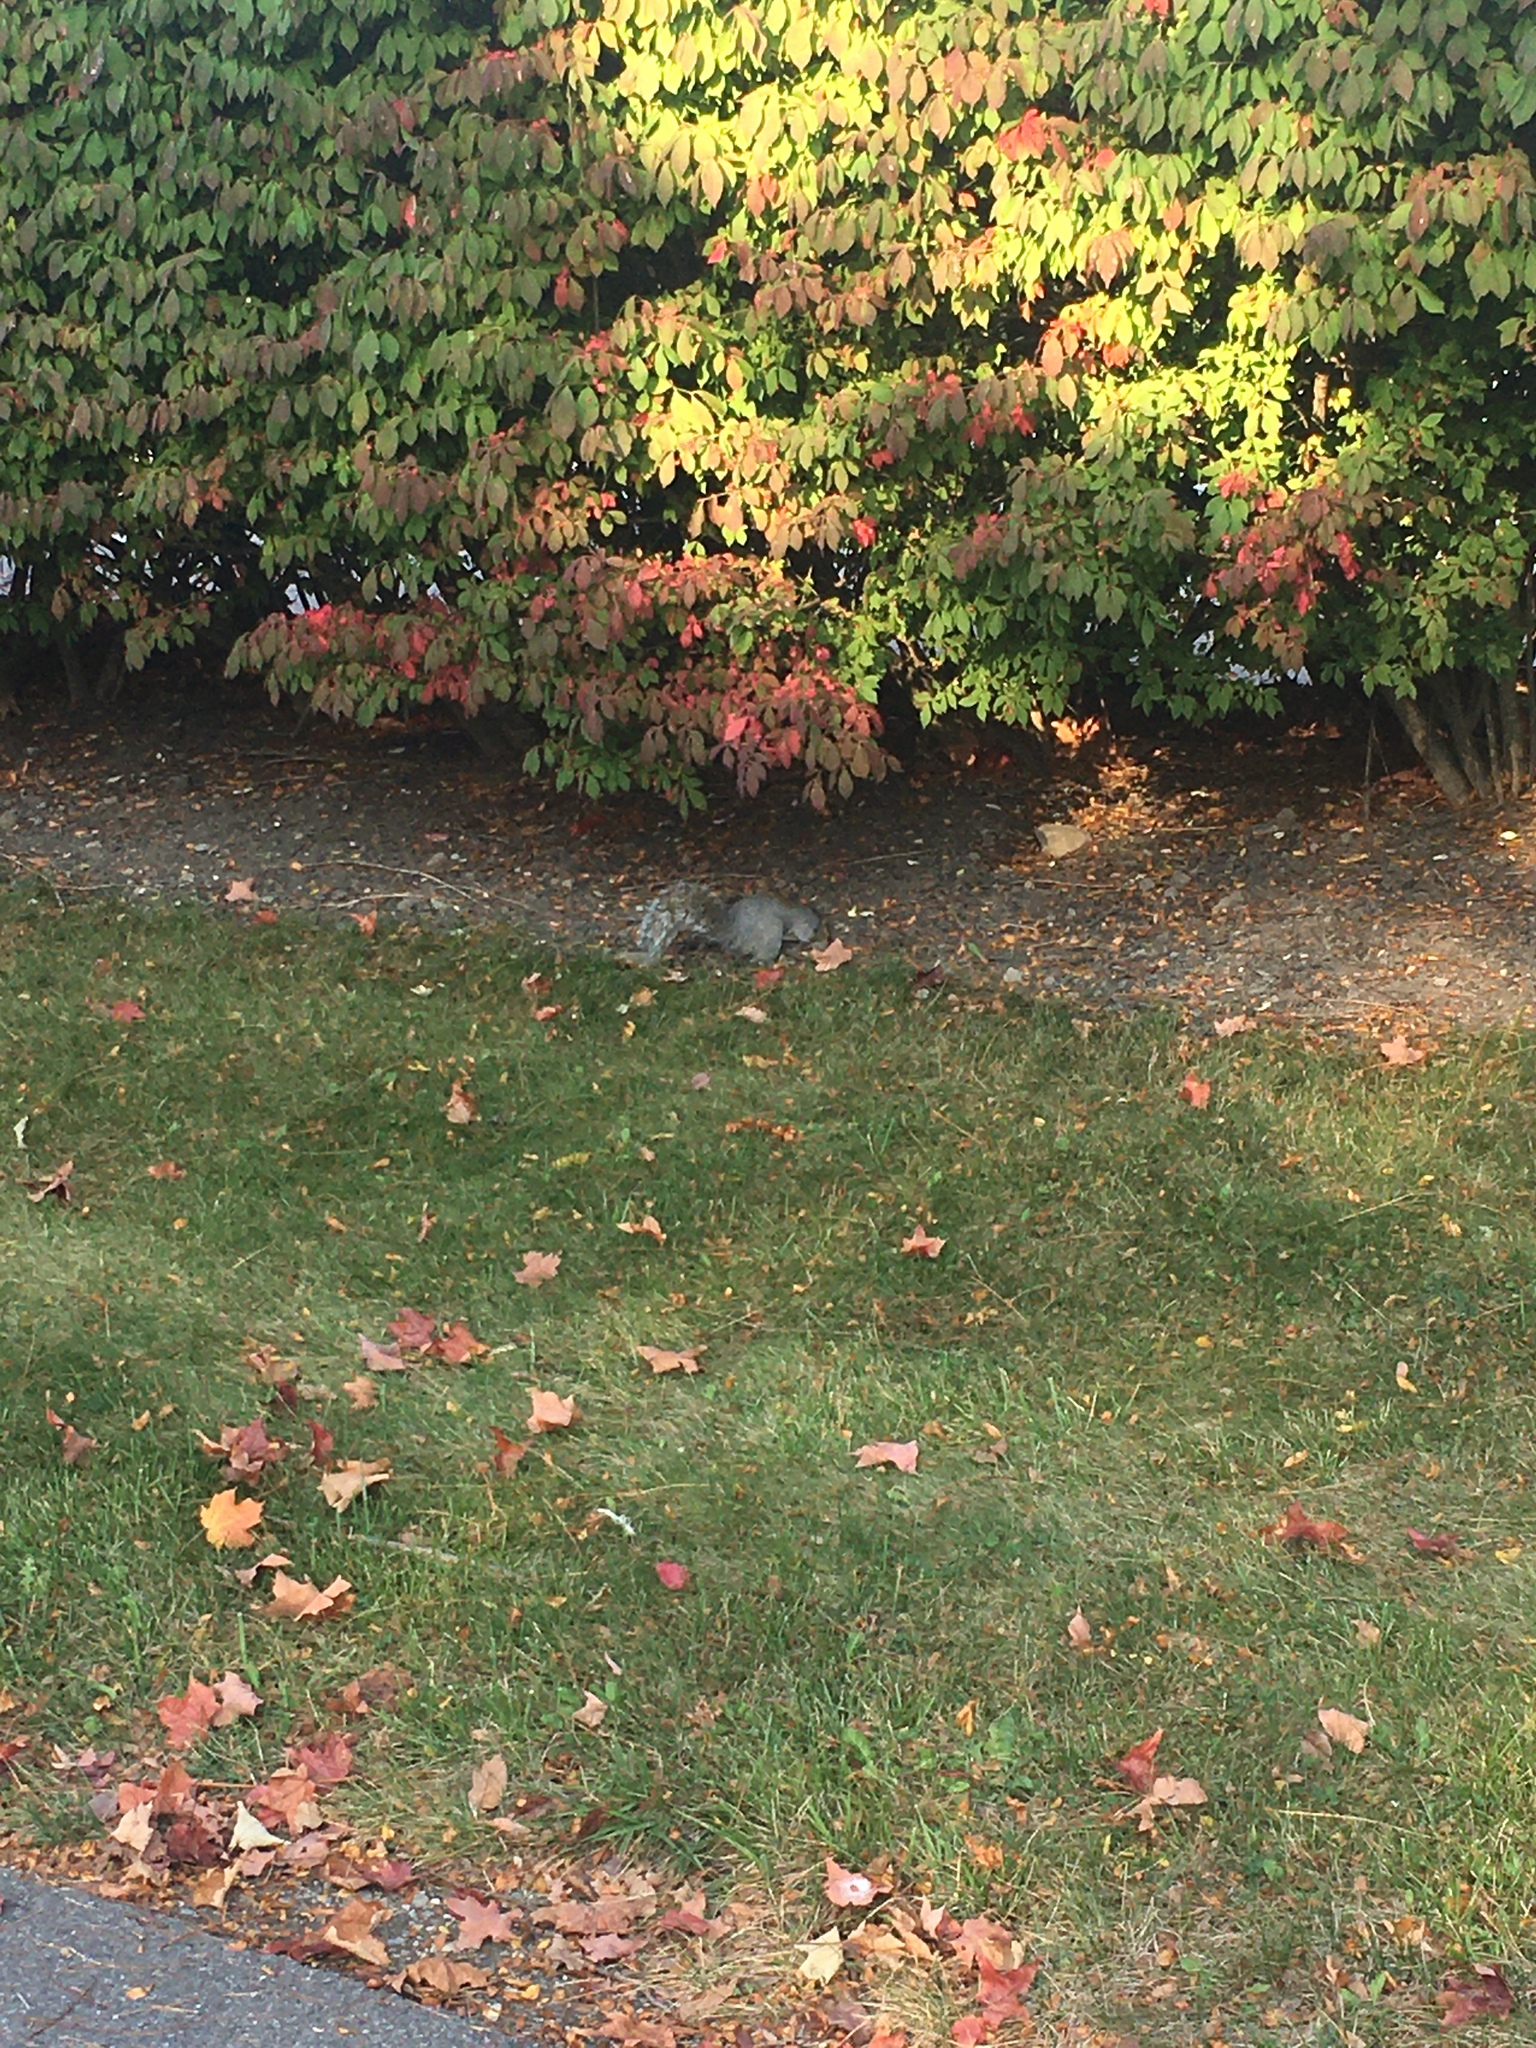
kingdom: Animalia
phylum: Chordata
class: Mammalia
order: Rodentia
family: Sciuridae
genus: Sciurus
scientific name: Sciurus carolinensis
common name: Eastern gray squirrel
